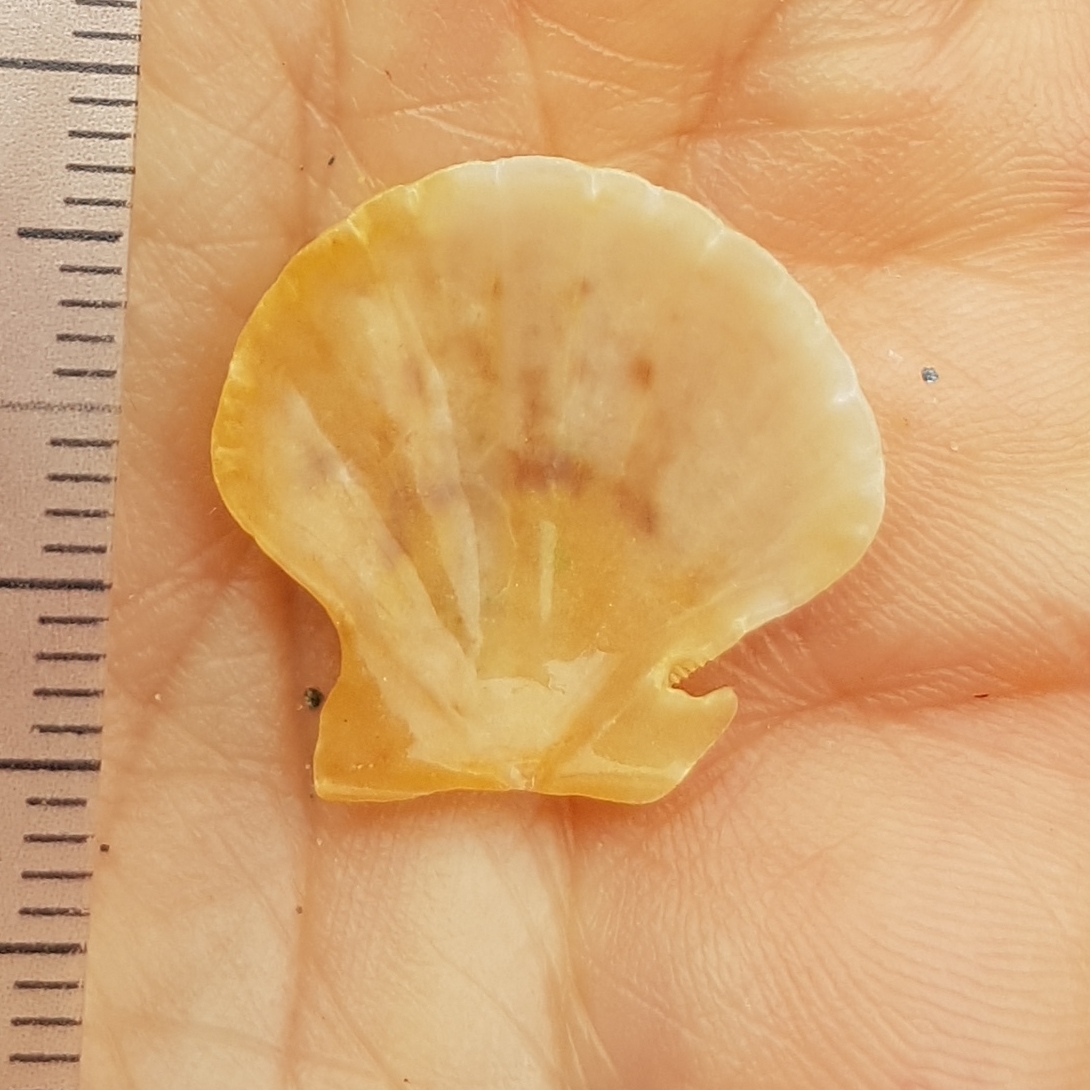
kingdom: Animalia
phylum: Mollusca
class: Bivalvia
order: Pectinida
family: Pectinidae
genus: Flexopecten
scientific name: Flexopecten flexuosus
